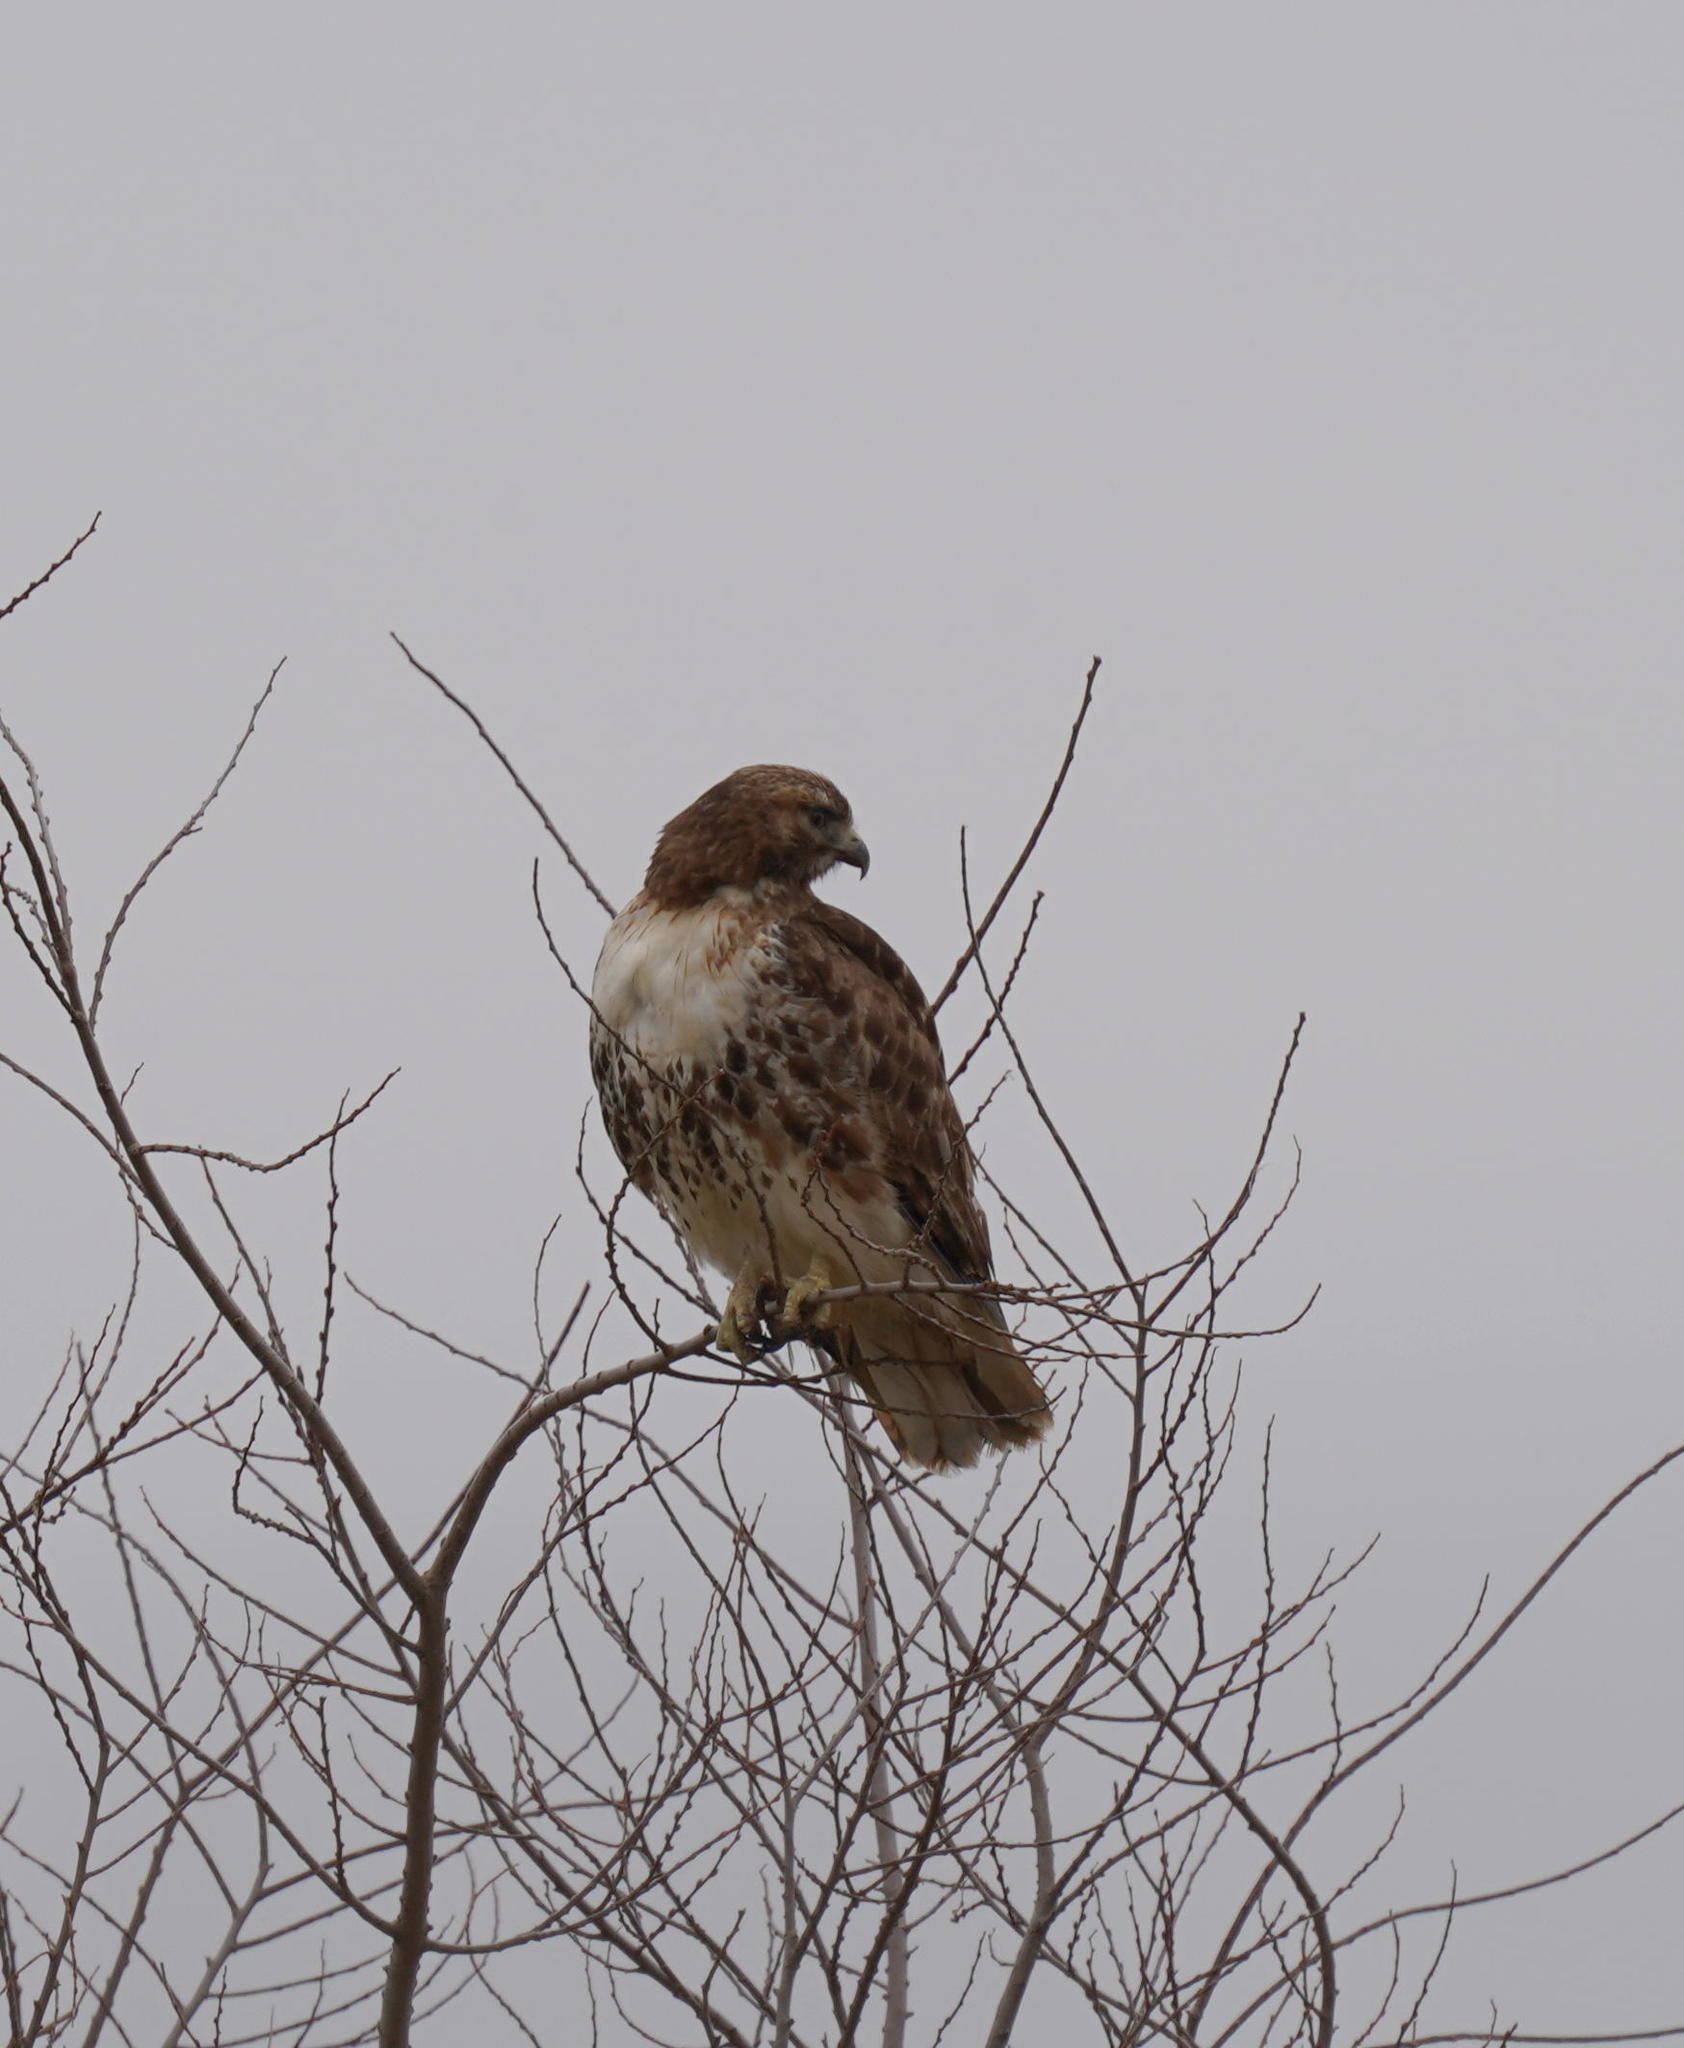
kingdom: Animalia
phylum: Chordata
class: Aves
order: Accipitriformes
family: Accipitridae
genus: Buteo
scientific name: Buteo jamaicensis
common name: Red-tailed hawk
